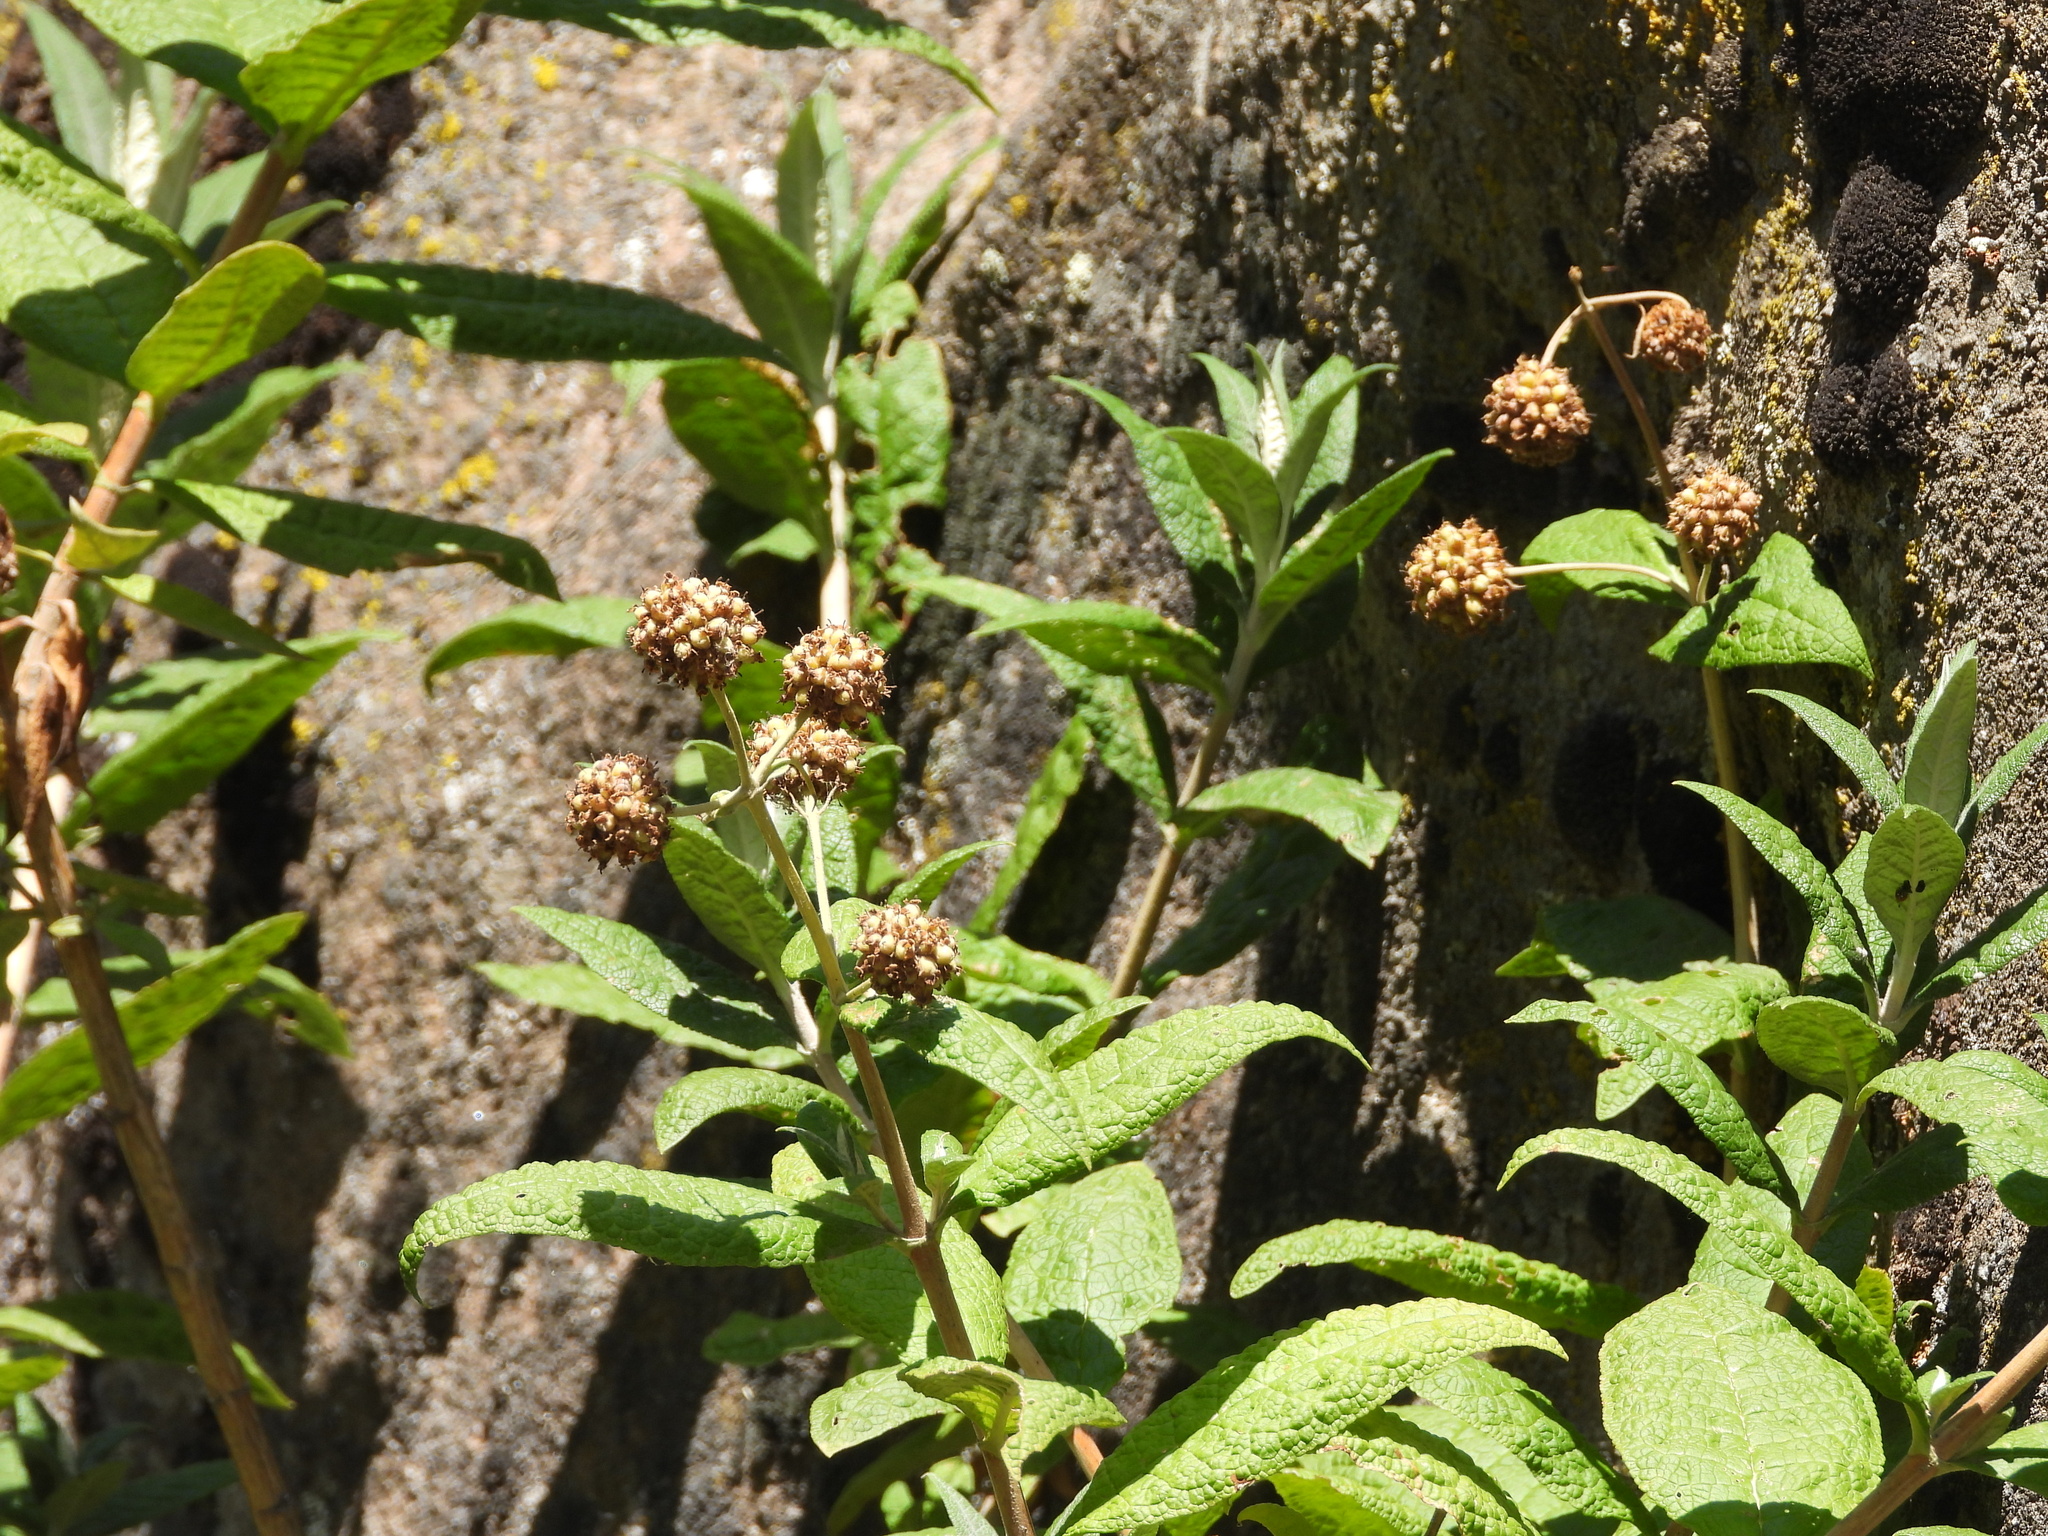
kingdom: Plantae
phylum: Tracheophyta
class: Magnoliopsida
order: Lamiales
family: Scrophulariaceae
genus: Buddleja
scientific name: Buddleja globosa
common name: Orange-ball-tree
